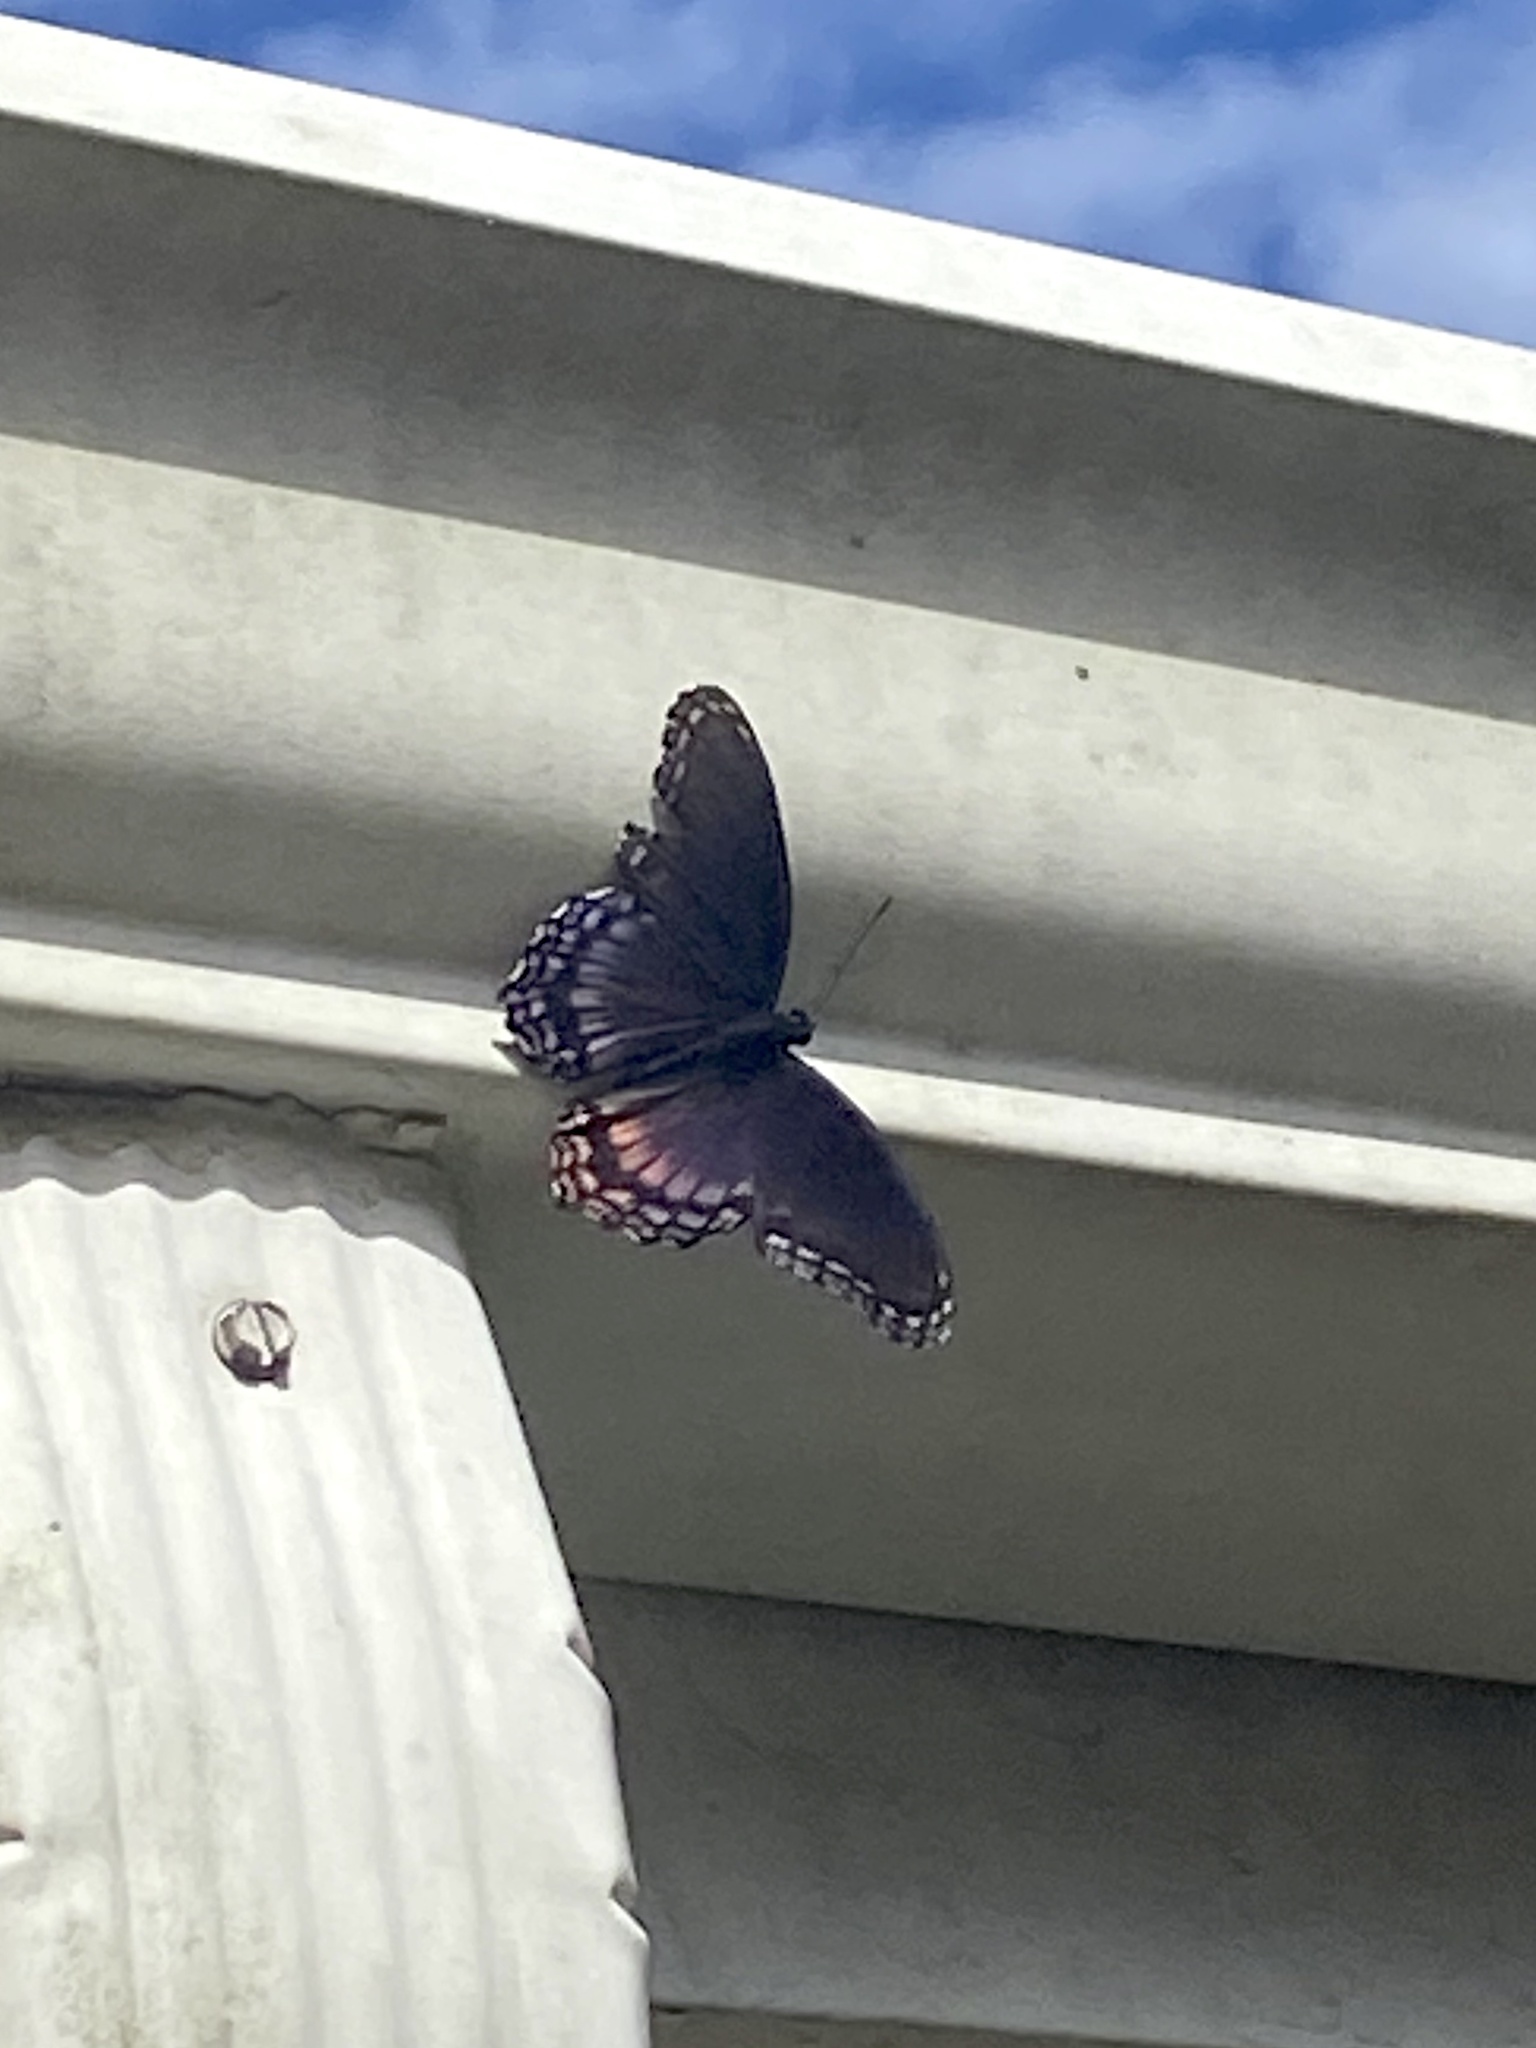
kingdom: Animalia
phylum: Arthropoda
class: Insecta
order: Lepidoptera
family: Nymphalidae
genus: Limenitis
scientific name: Limenitis astyanax
